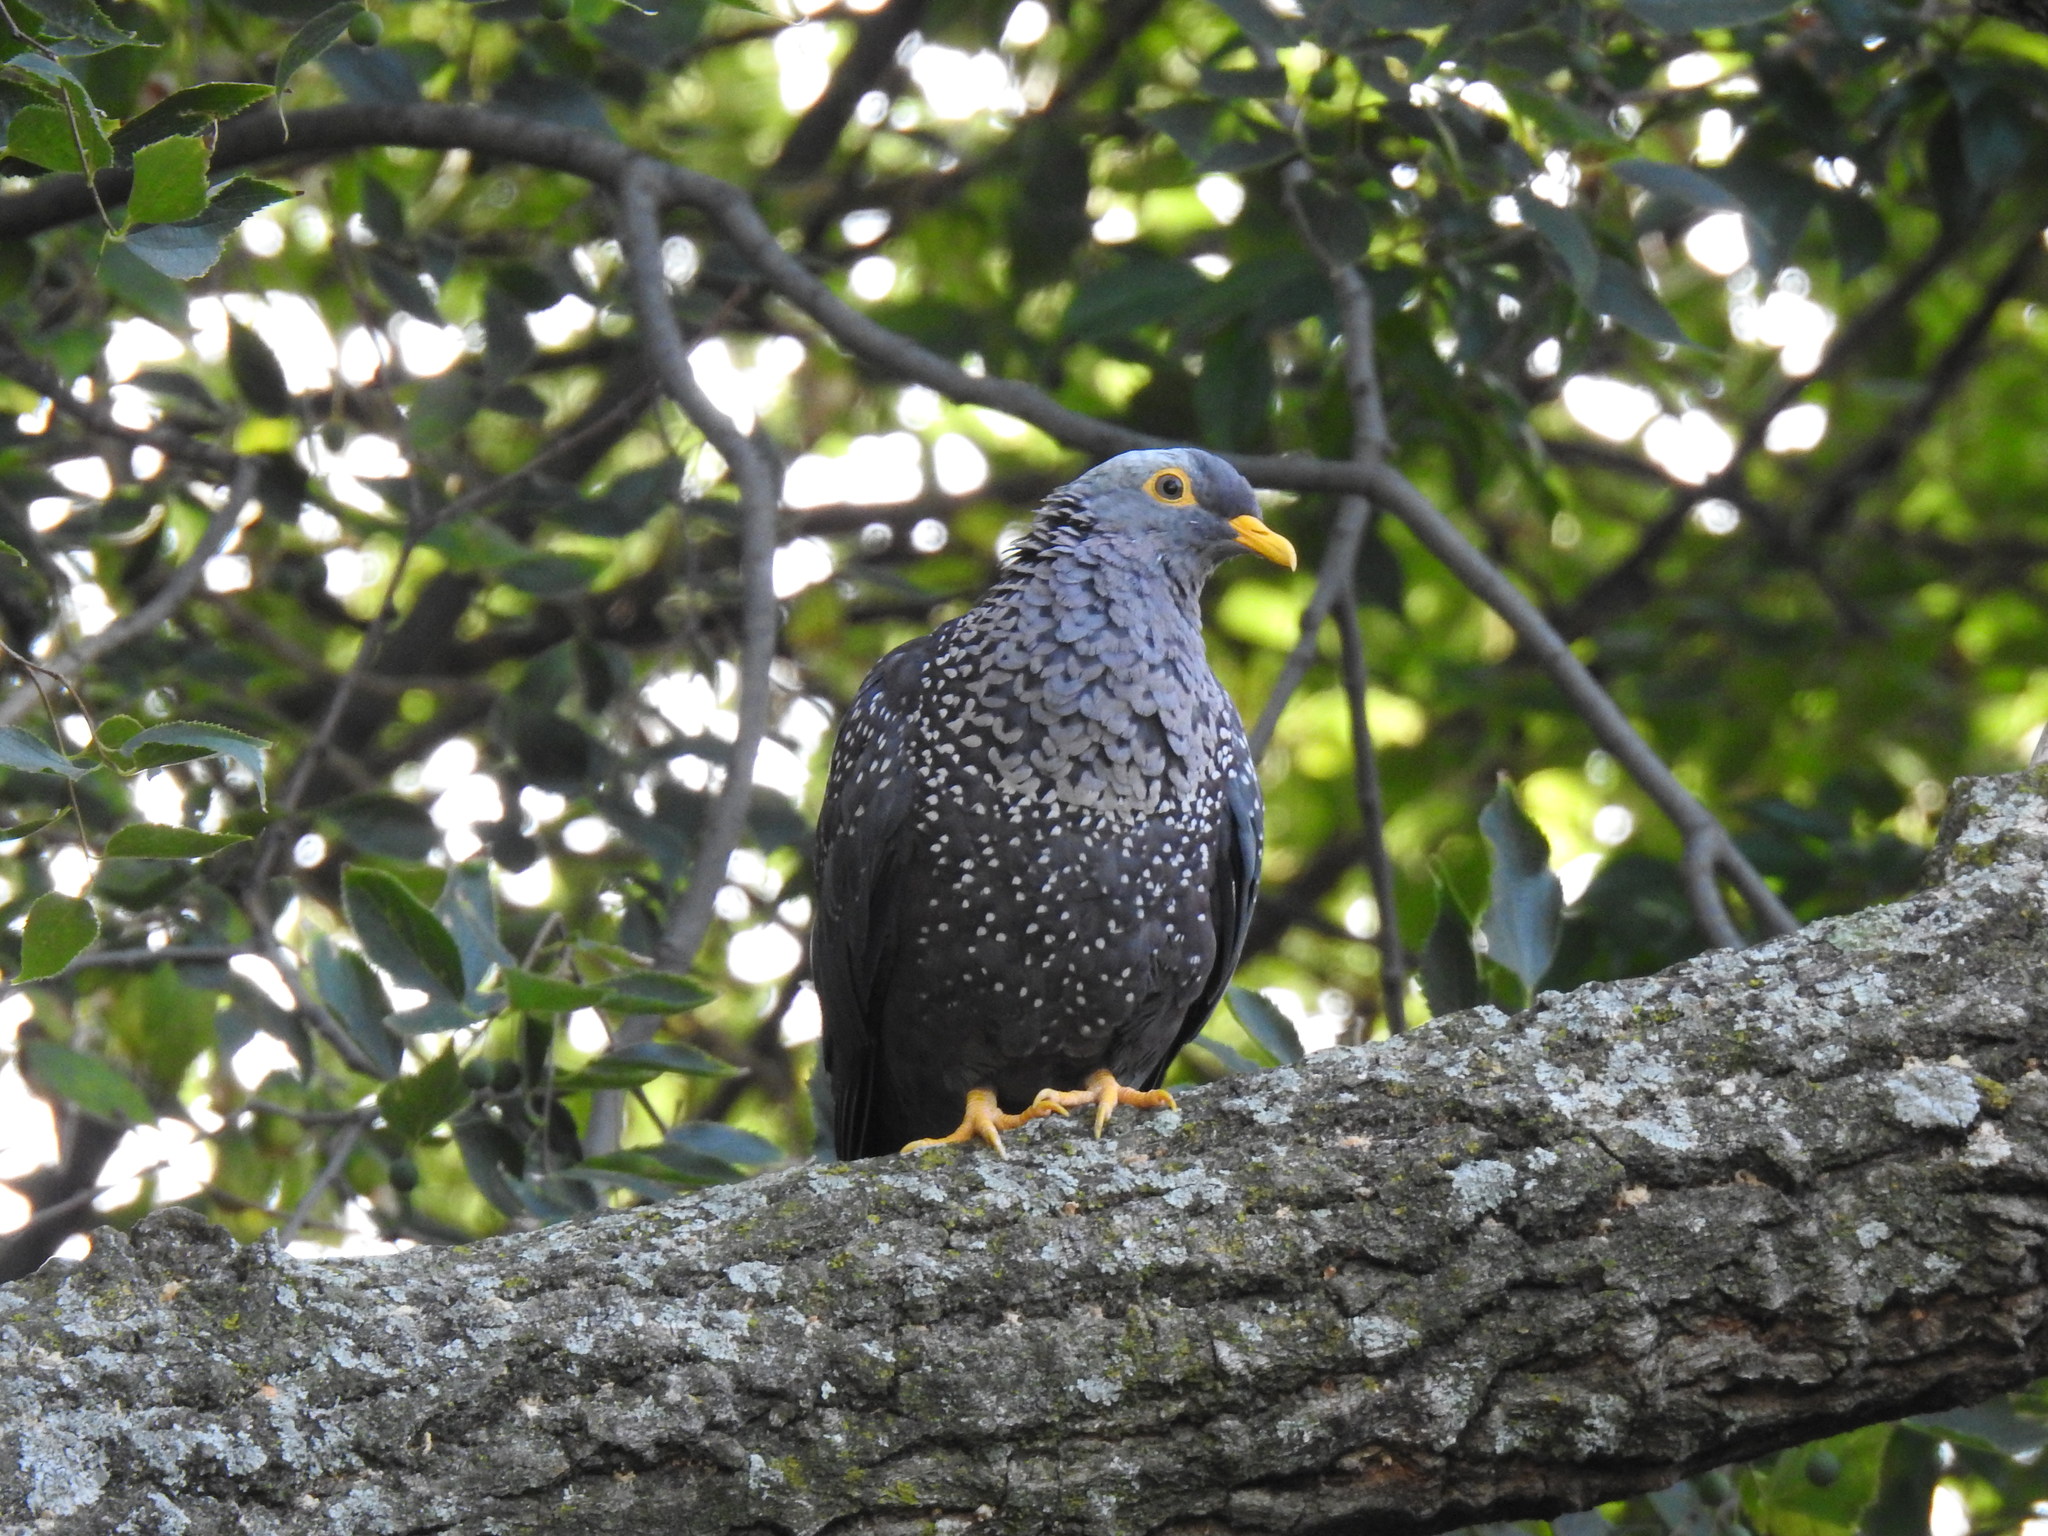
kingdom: Animalia
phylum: Chordata
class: Aves
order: Columbiformes
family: Columbidae
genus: Columba
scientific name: Columba arquatrix
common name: African olive pigeon
